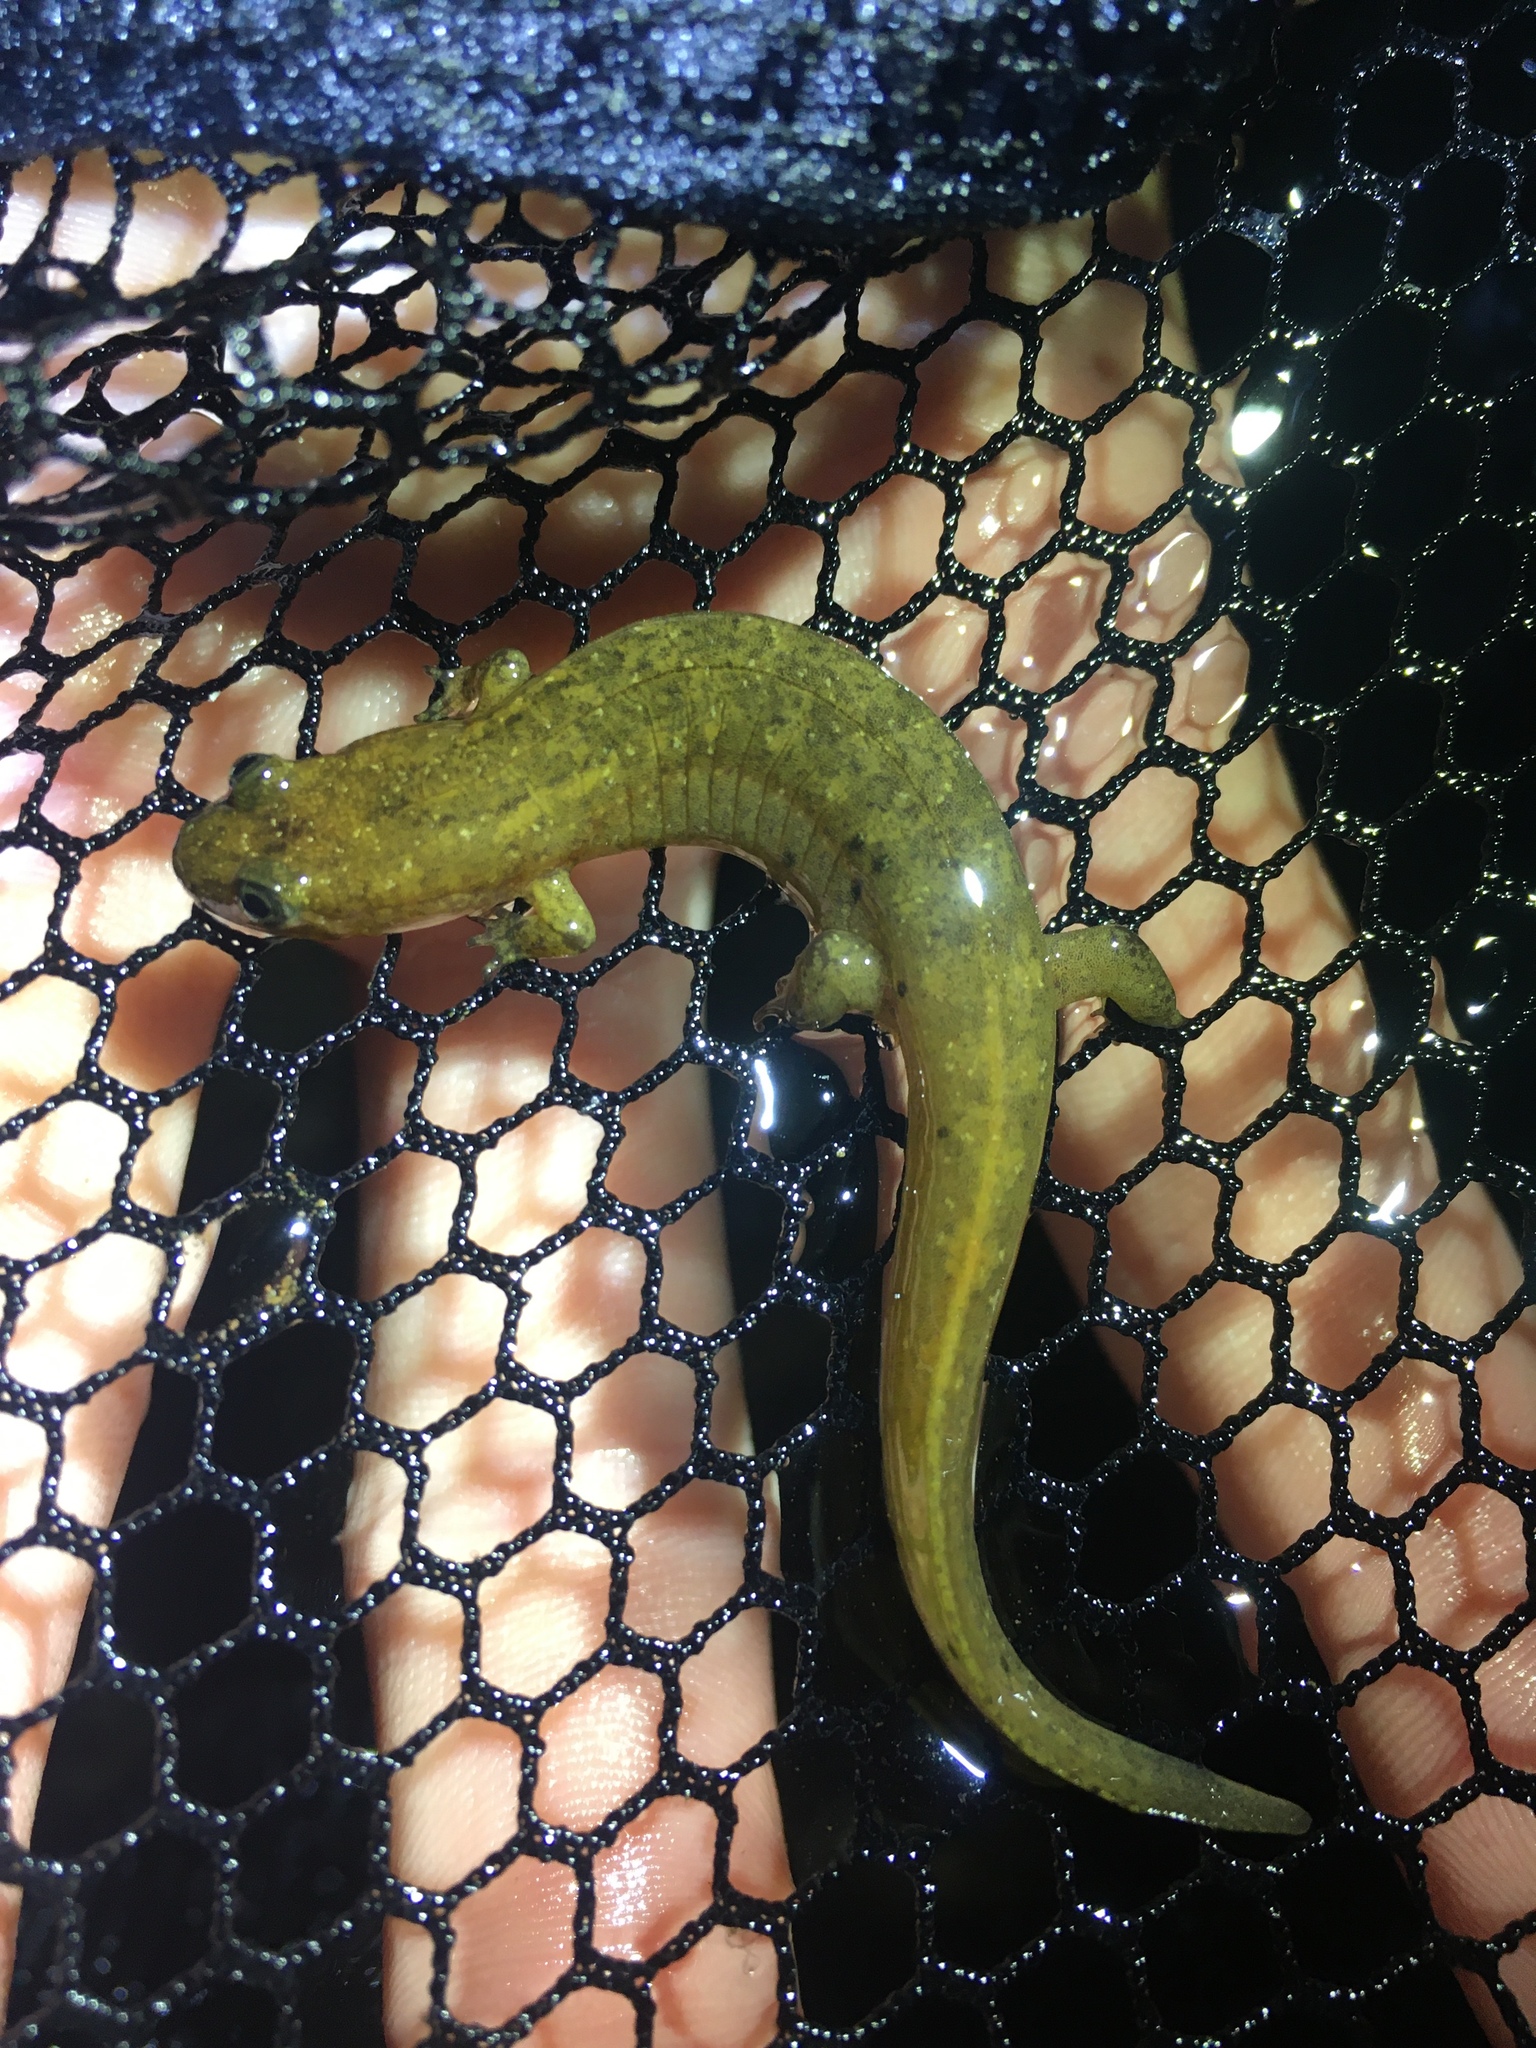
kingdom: Animalia
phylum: Chordata
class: Amphibia
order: Caudata
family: Plethodontidae
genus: Desmognathus
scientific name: Desmognathus
